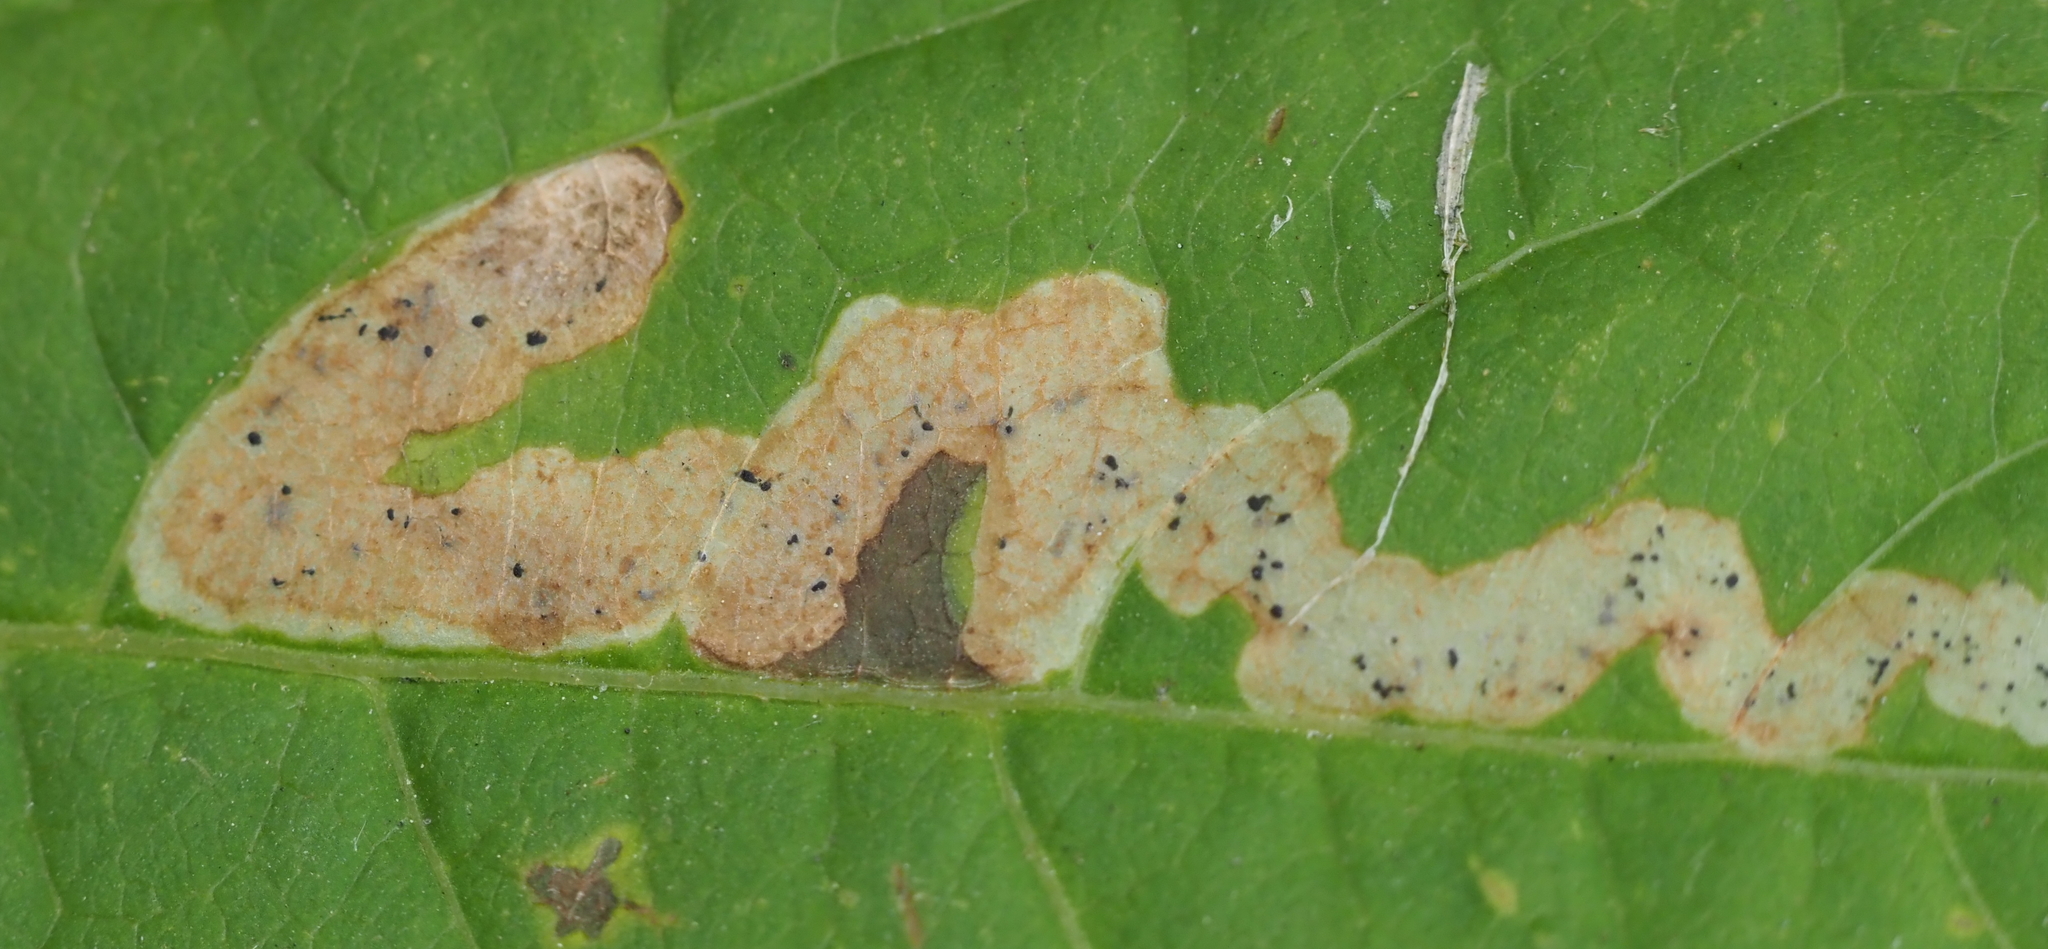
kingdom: Animalia
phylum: Arthropoda
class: Insecta
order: Diptera
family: Agromyzidae
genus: Phytomyza
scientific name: Phytomyza aralivora
